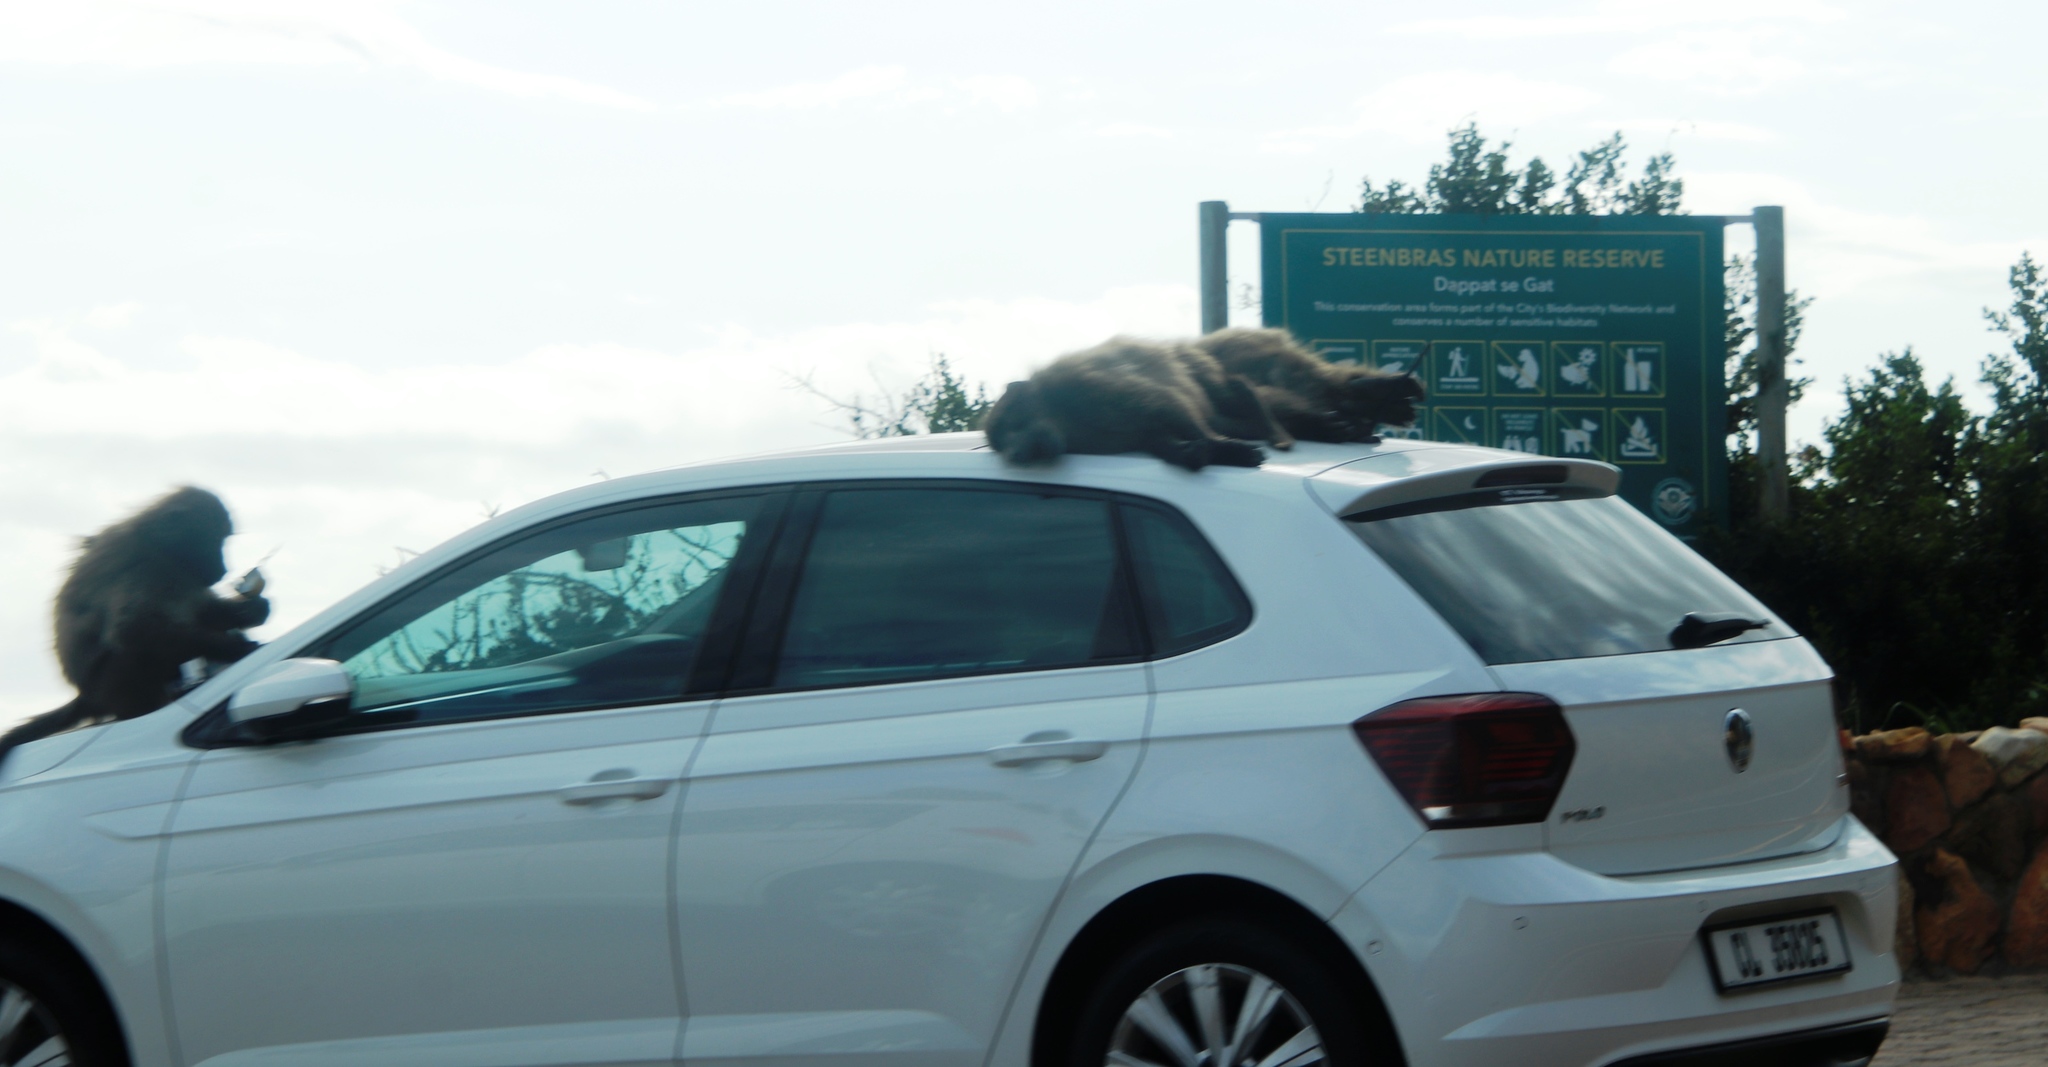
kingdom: Animalia
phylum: Chordata
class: Mammalia
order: Primates
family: Cercopithecidae
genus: Papio
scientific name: Papio ursinus
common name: Chacma baboon
